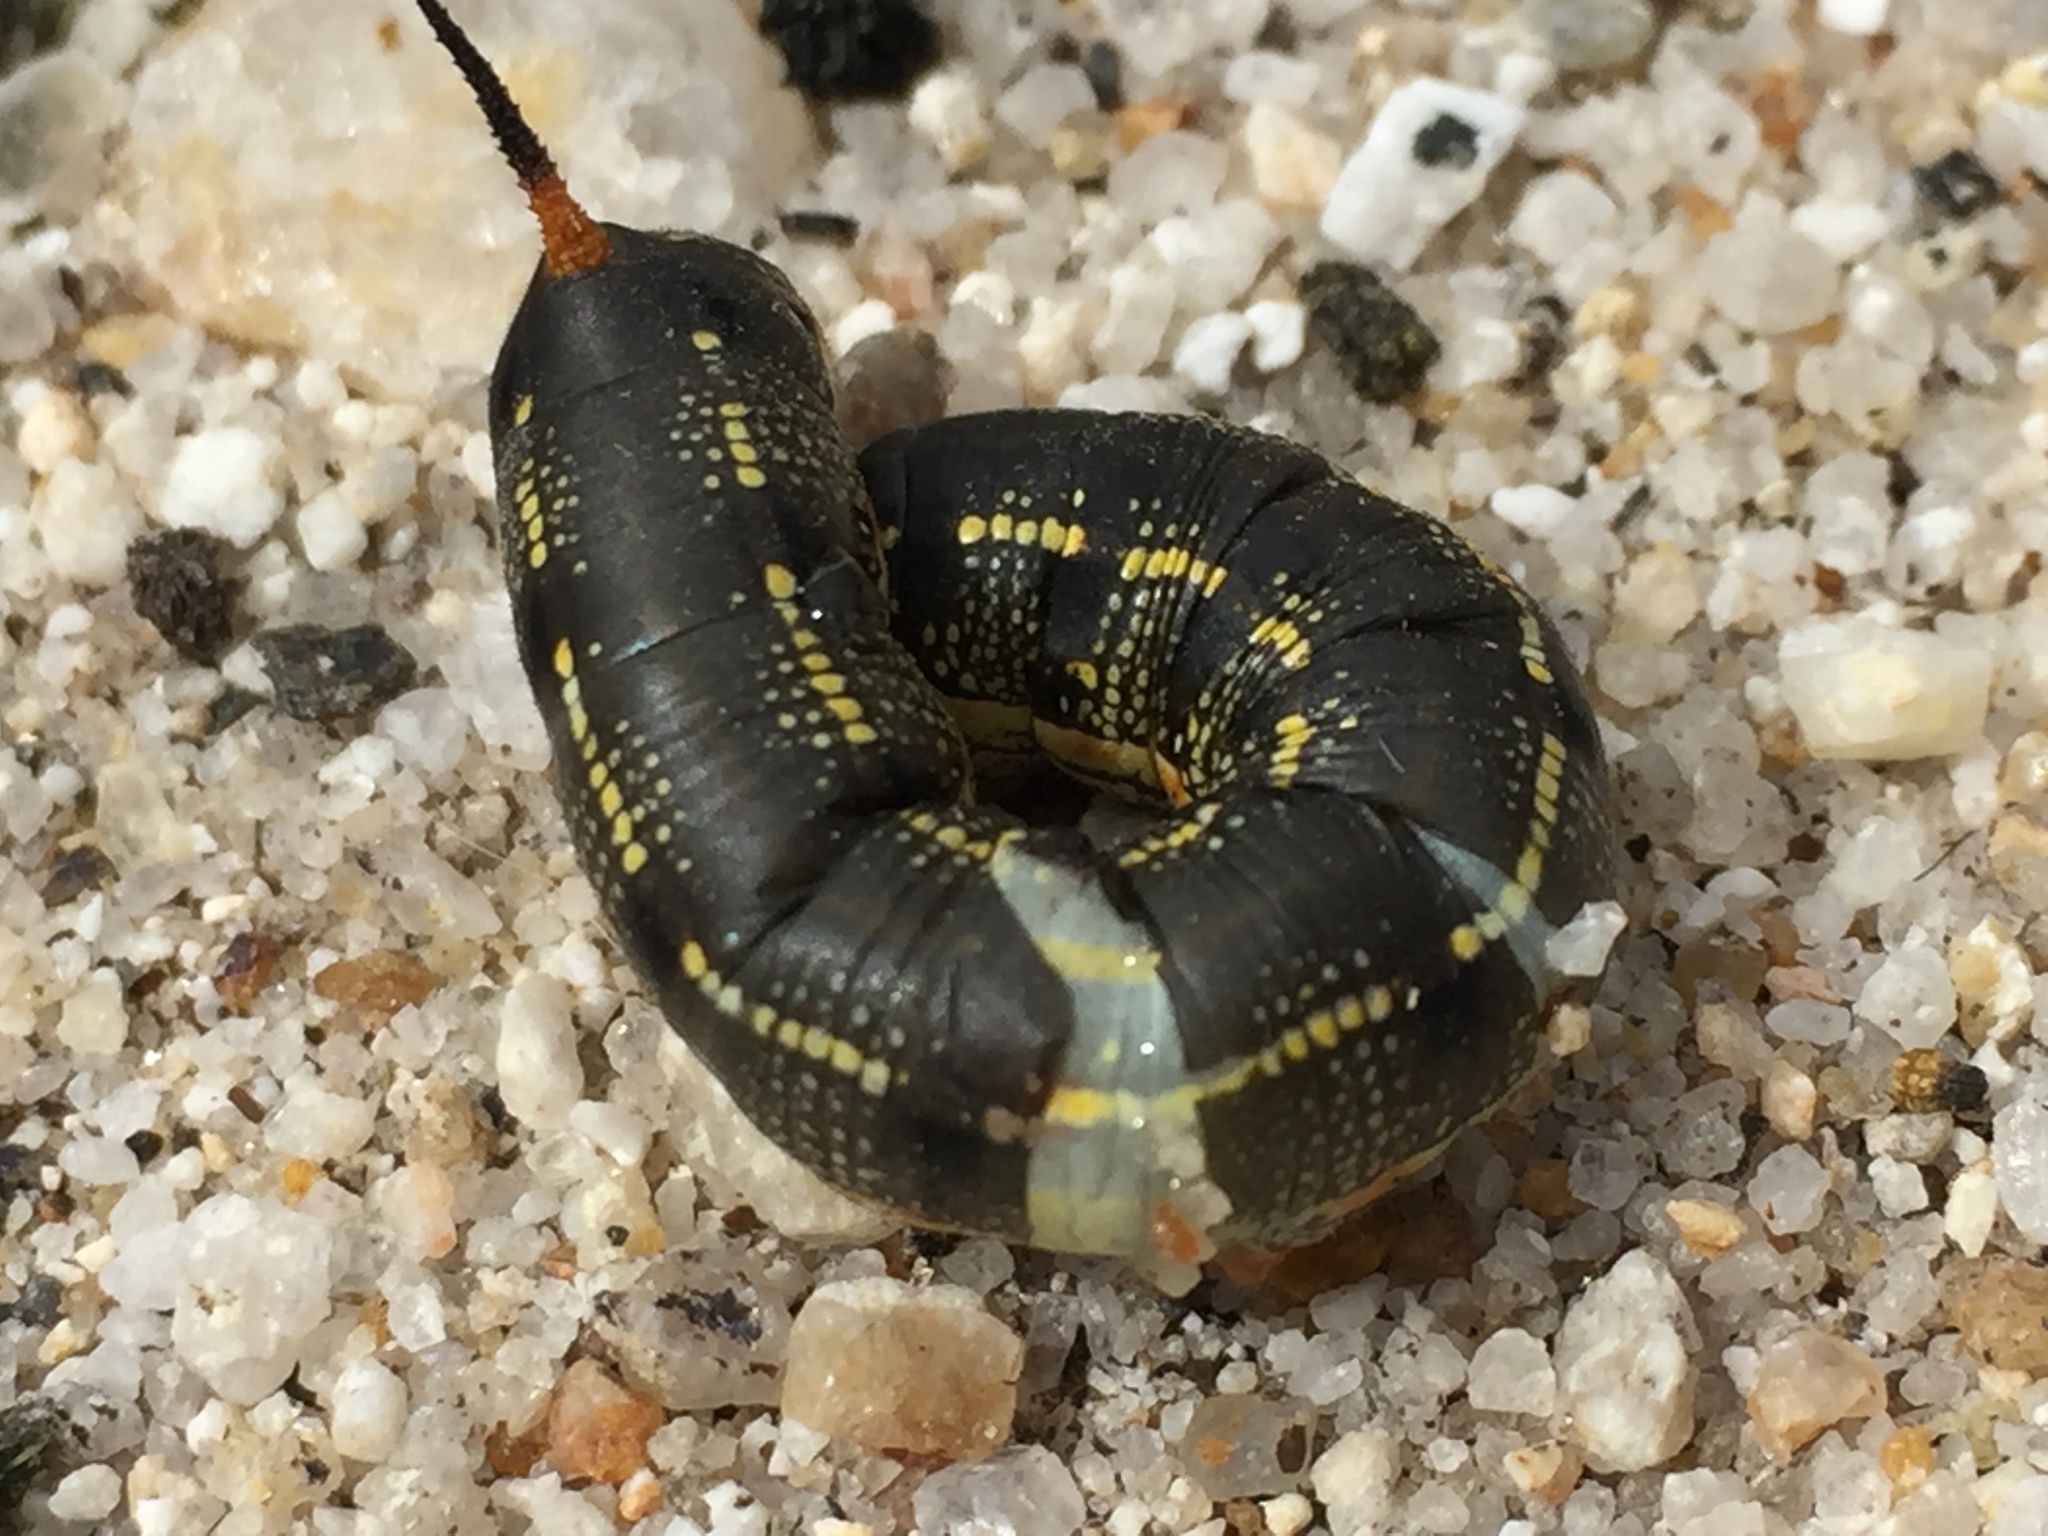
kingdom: Animalia
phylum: Arthropoda
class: Insecta
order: Lepidoptera
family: Sphingidae
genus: Hyles
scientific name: Hyles lineata
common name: White-lined sphinx
